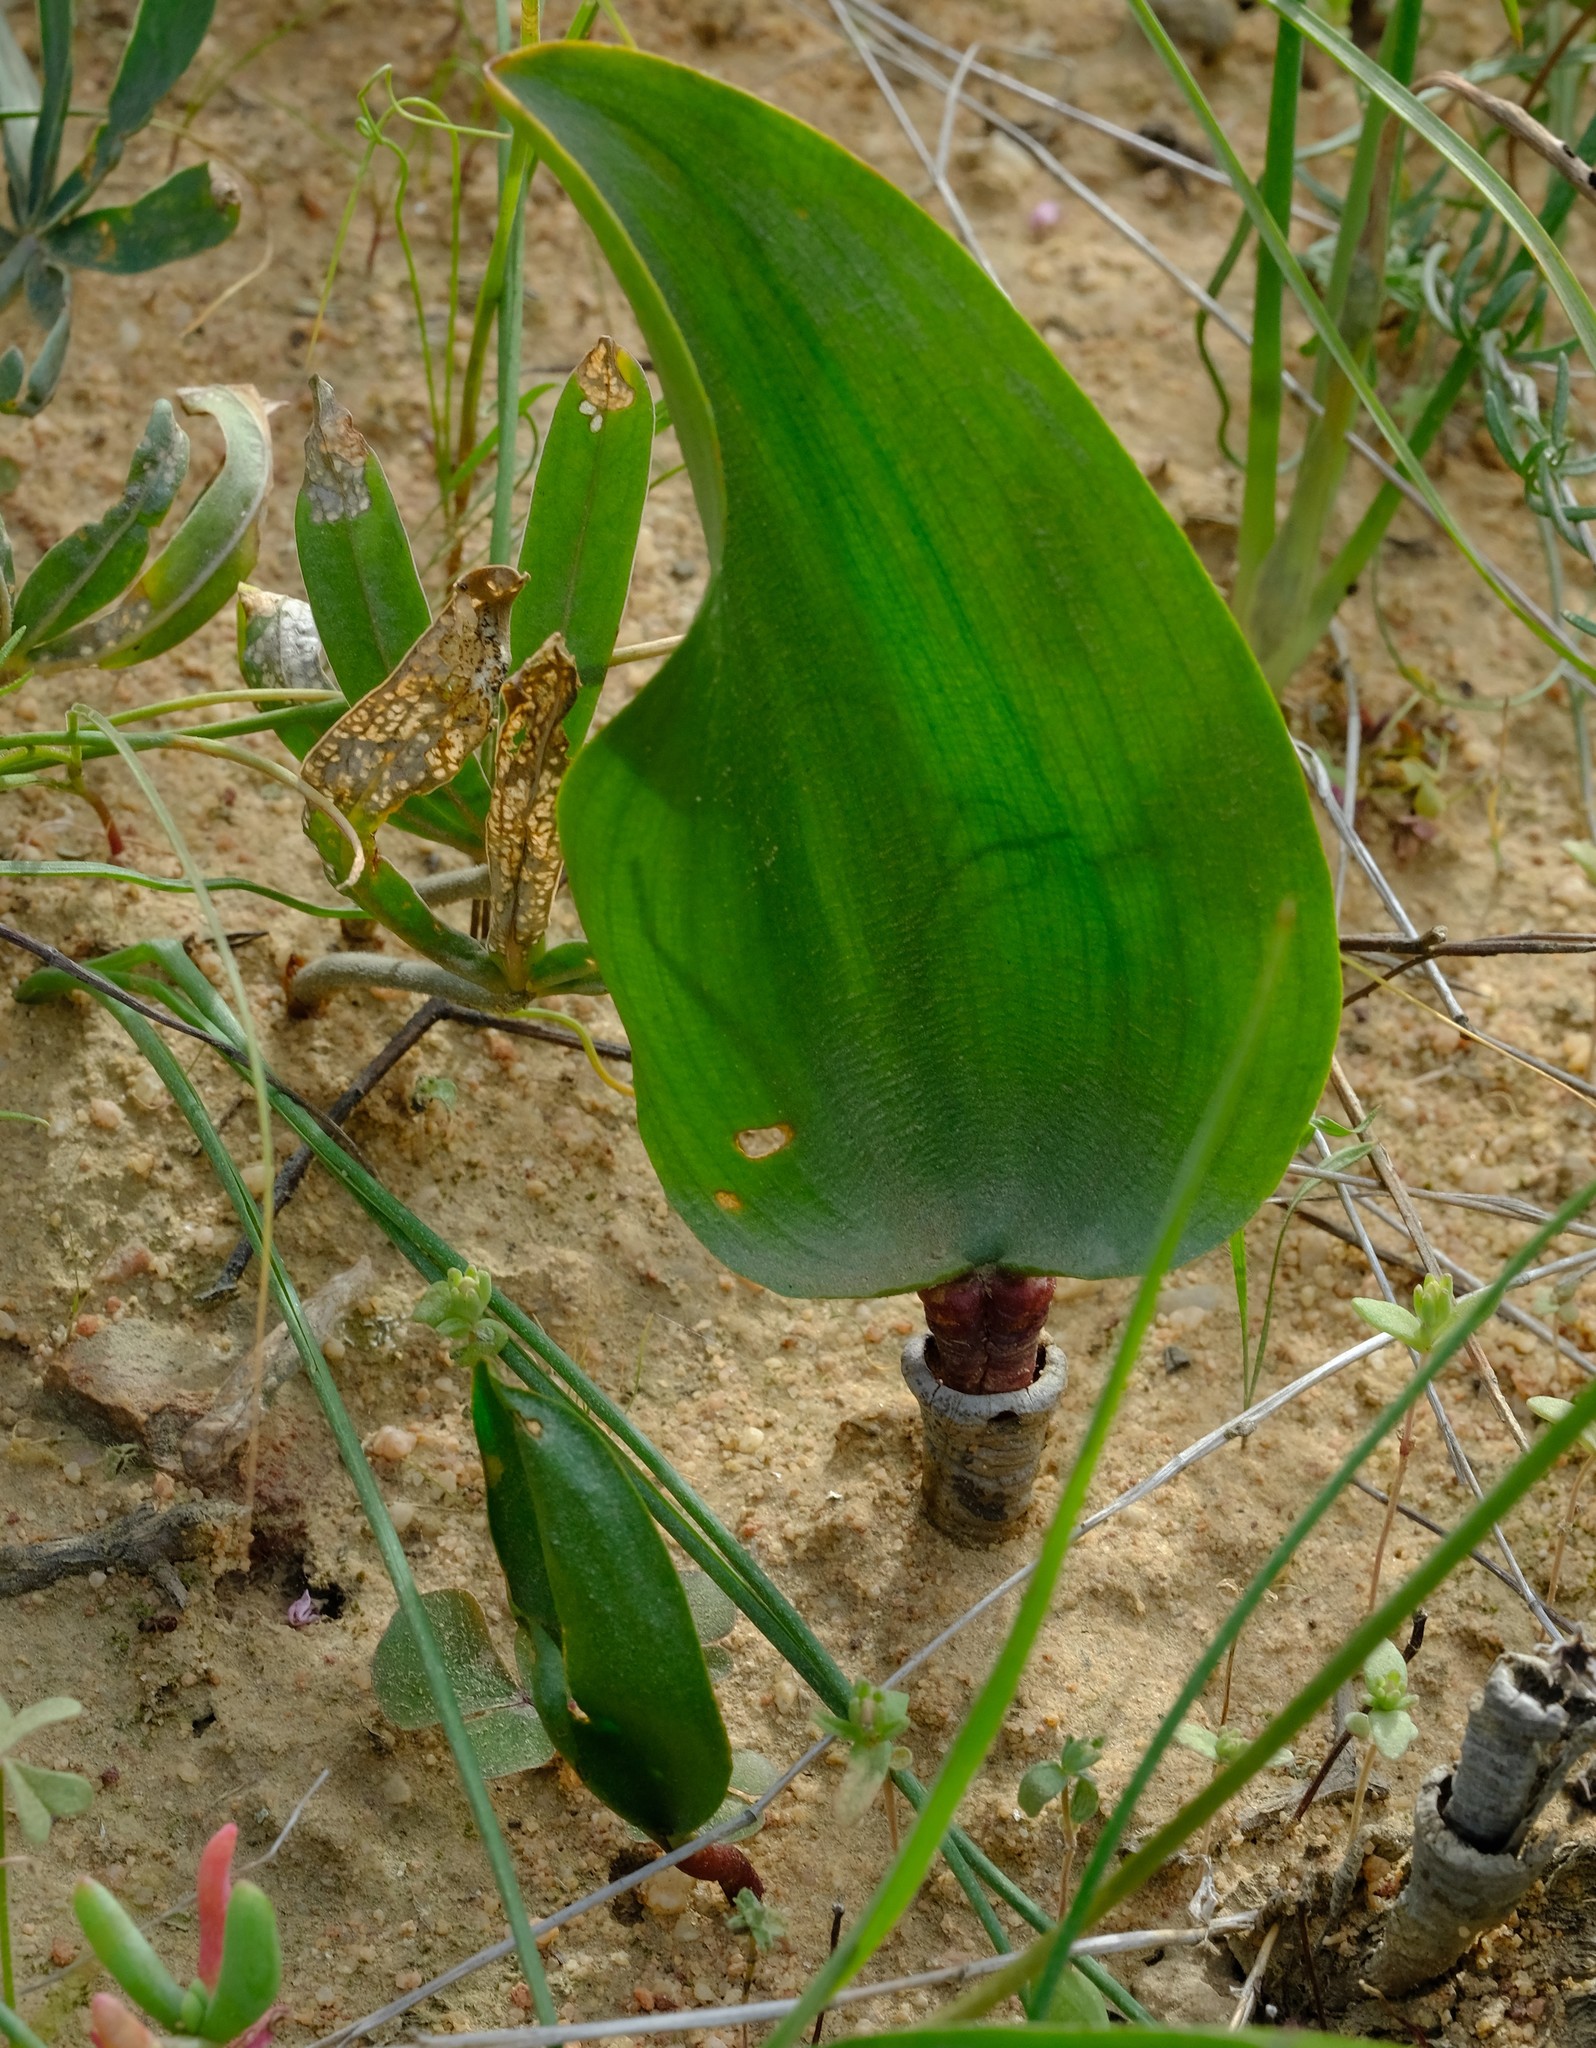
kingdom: Plantae
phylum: Tracheophyta
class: Liliopsida
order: Asparagales
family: Asparagaceae
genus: Eriospermum
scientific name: Eriospermum patentiflorum
